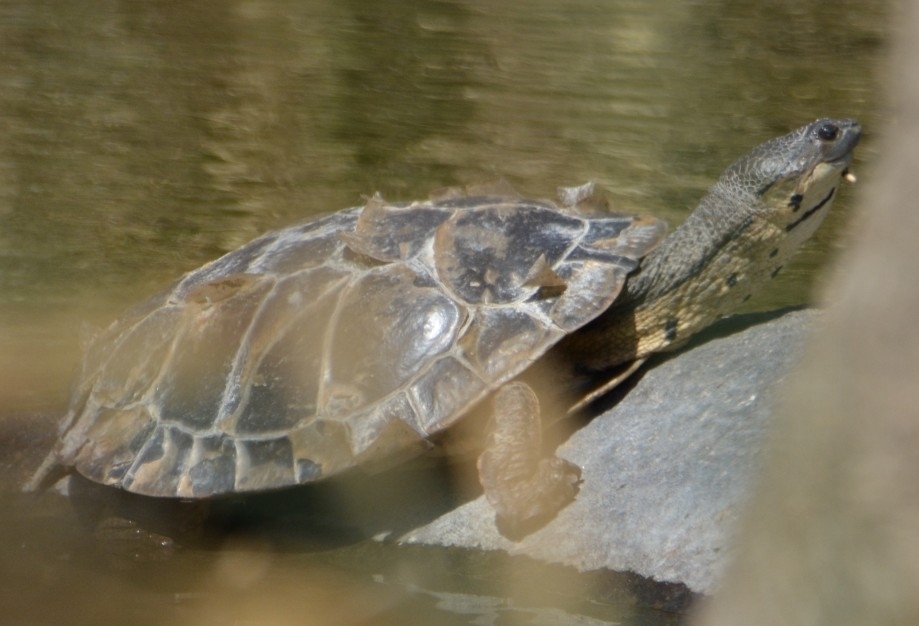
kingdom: Animalia
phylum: Chordata
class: Testudines
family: Chelidae
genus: Phrynops
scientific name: Phrynops hilarii
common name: Side-necked turtle of saint hillaire
